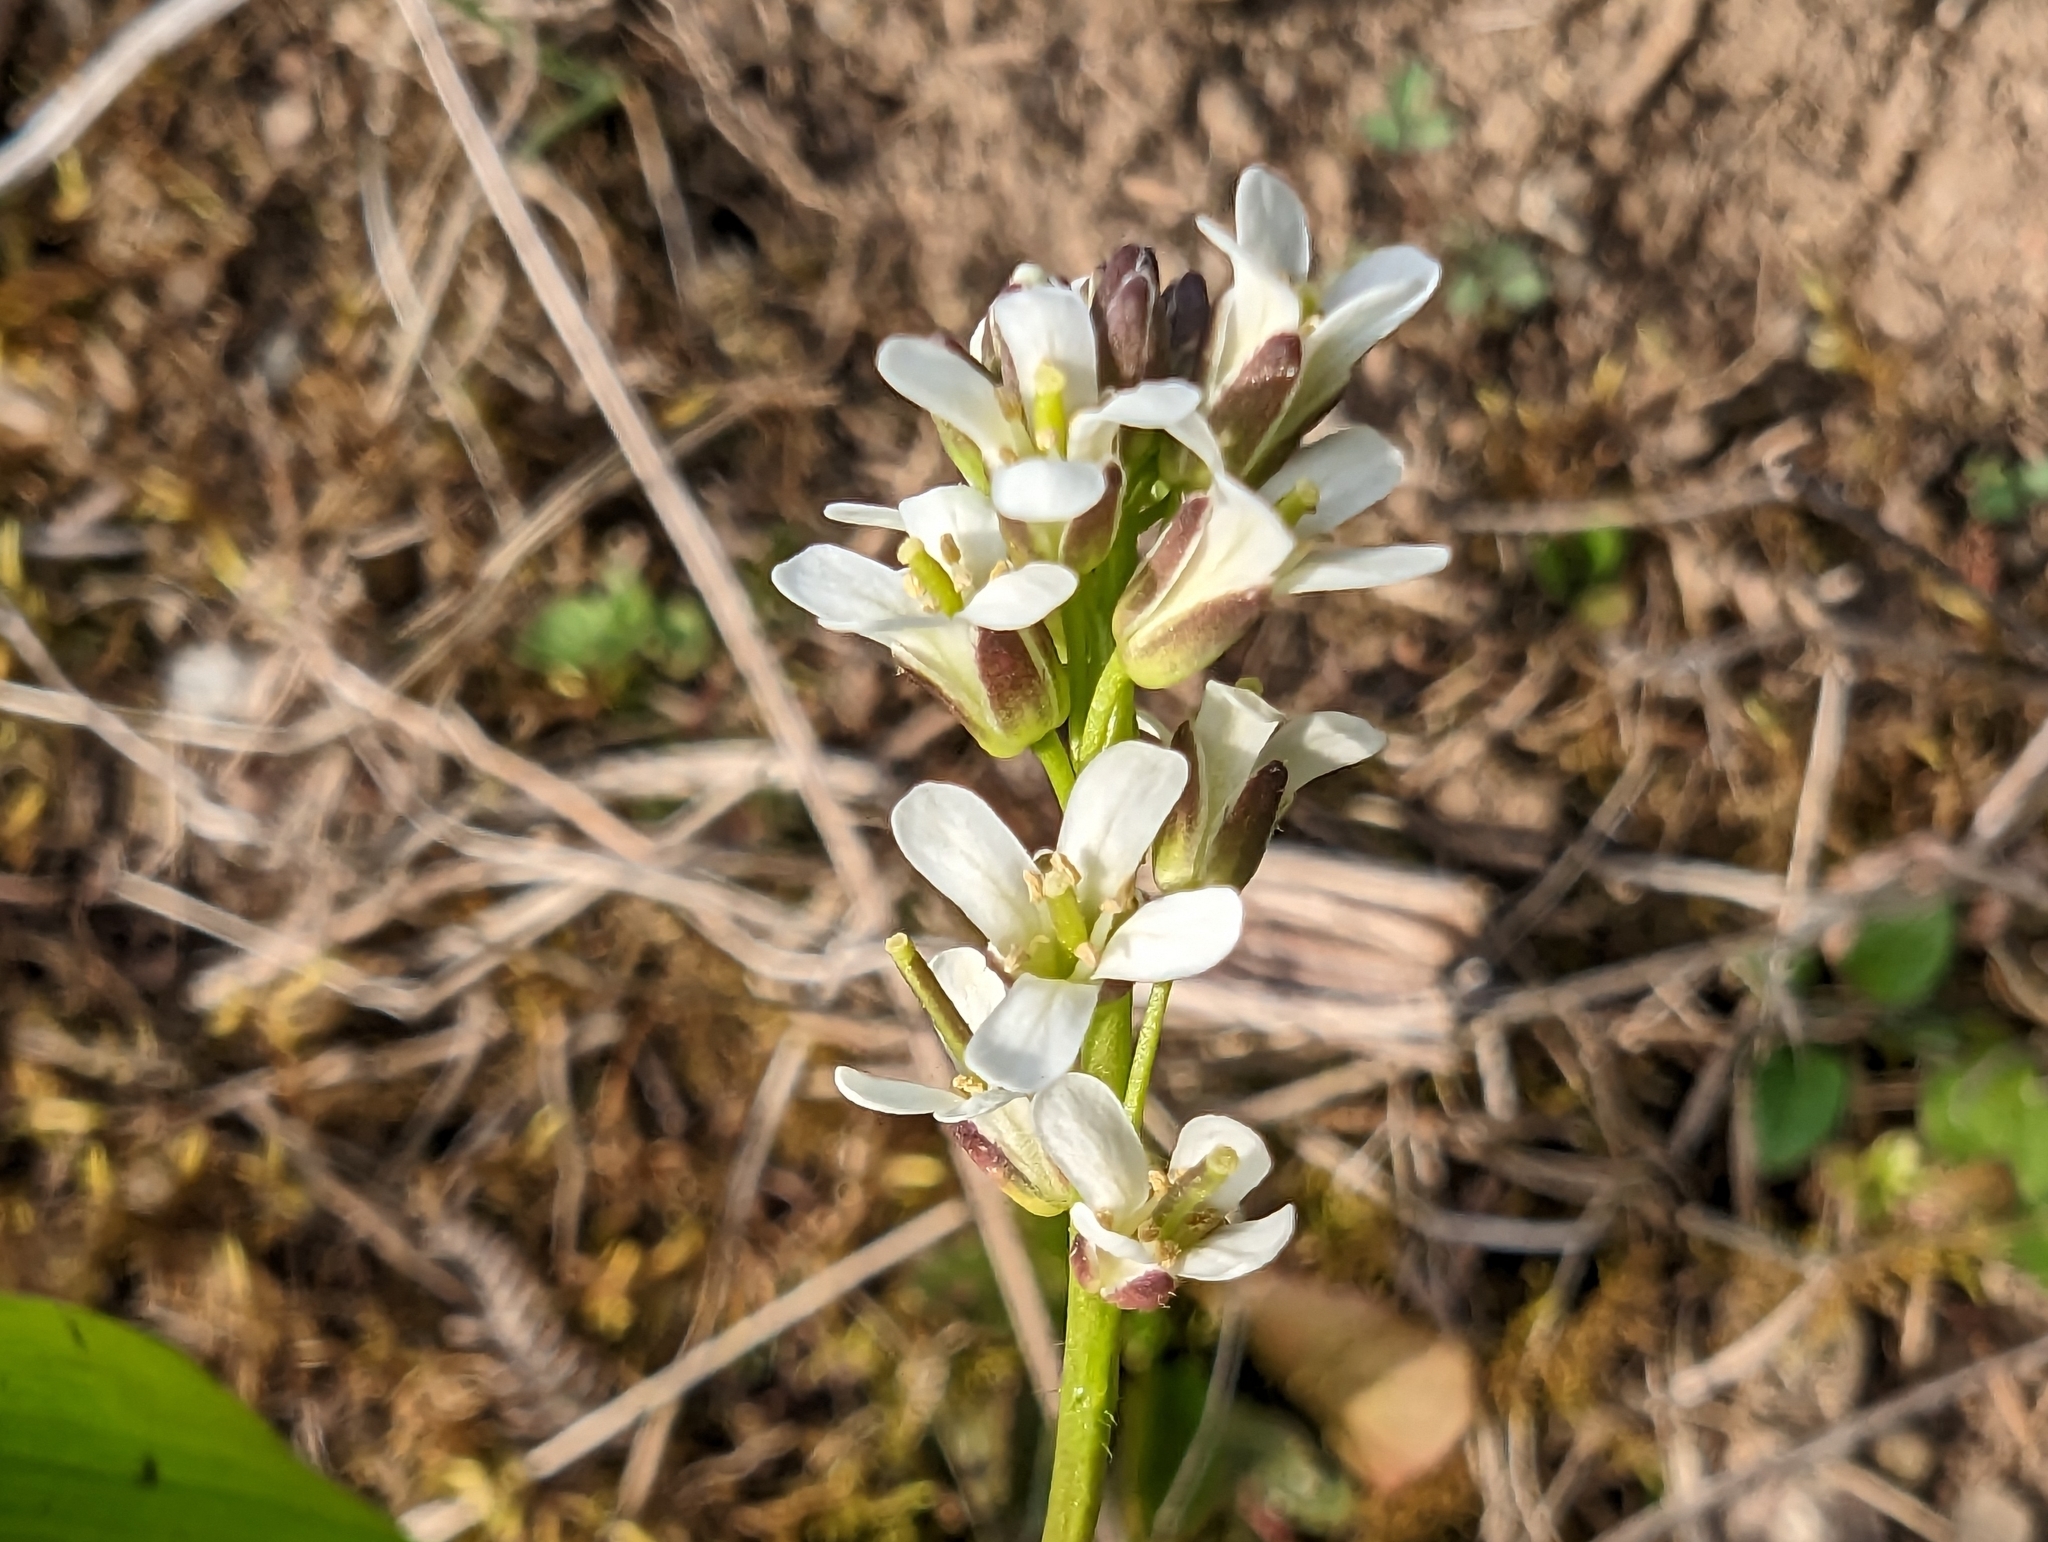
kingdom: Plantae
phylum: Tracheophyta
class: Magnoliopsida
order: Brassicales
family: Brassicaceae
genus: Arabis
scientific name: Arabis hirsuta
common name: Hairy rock-cress
